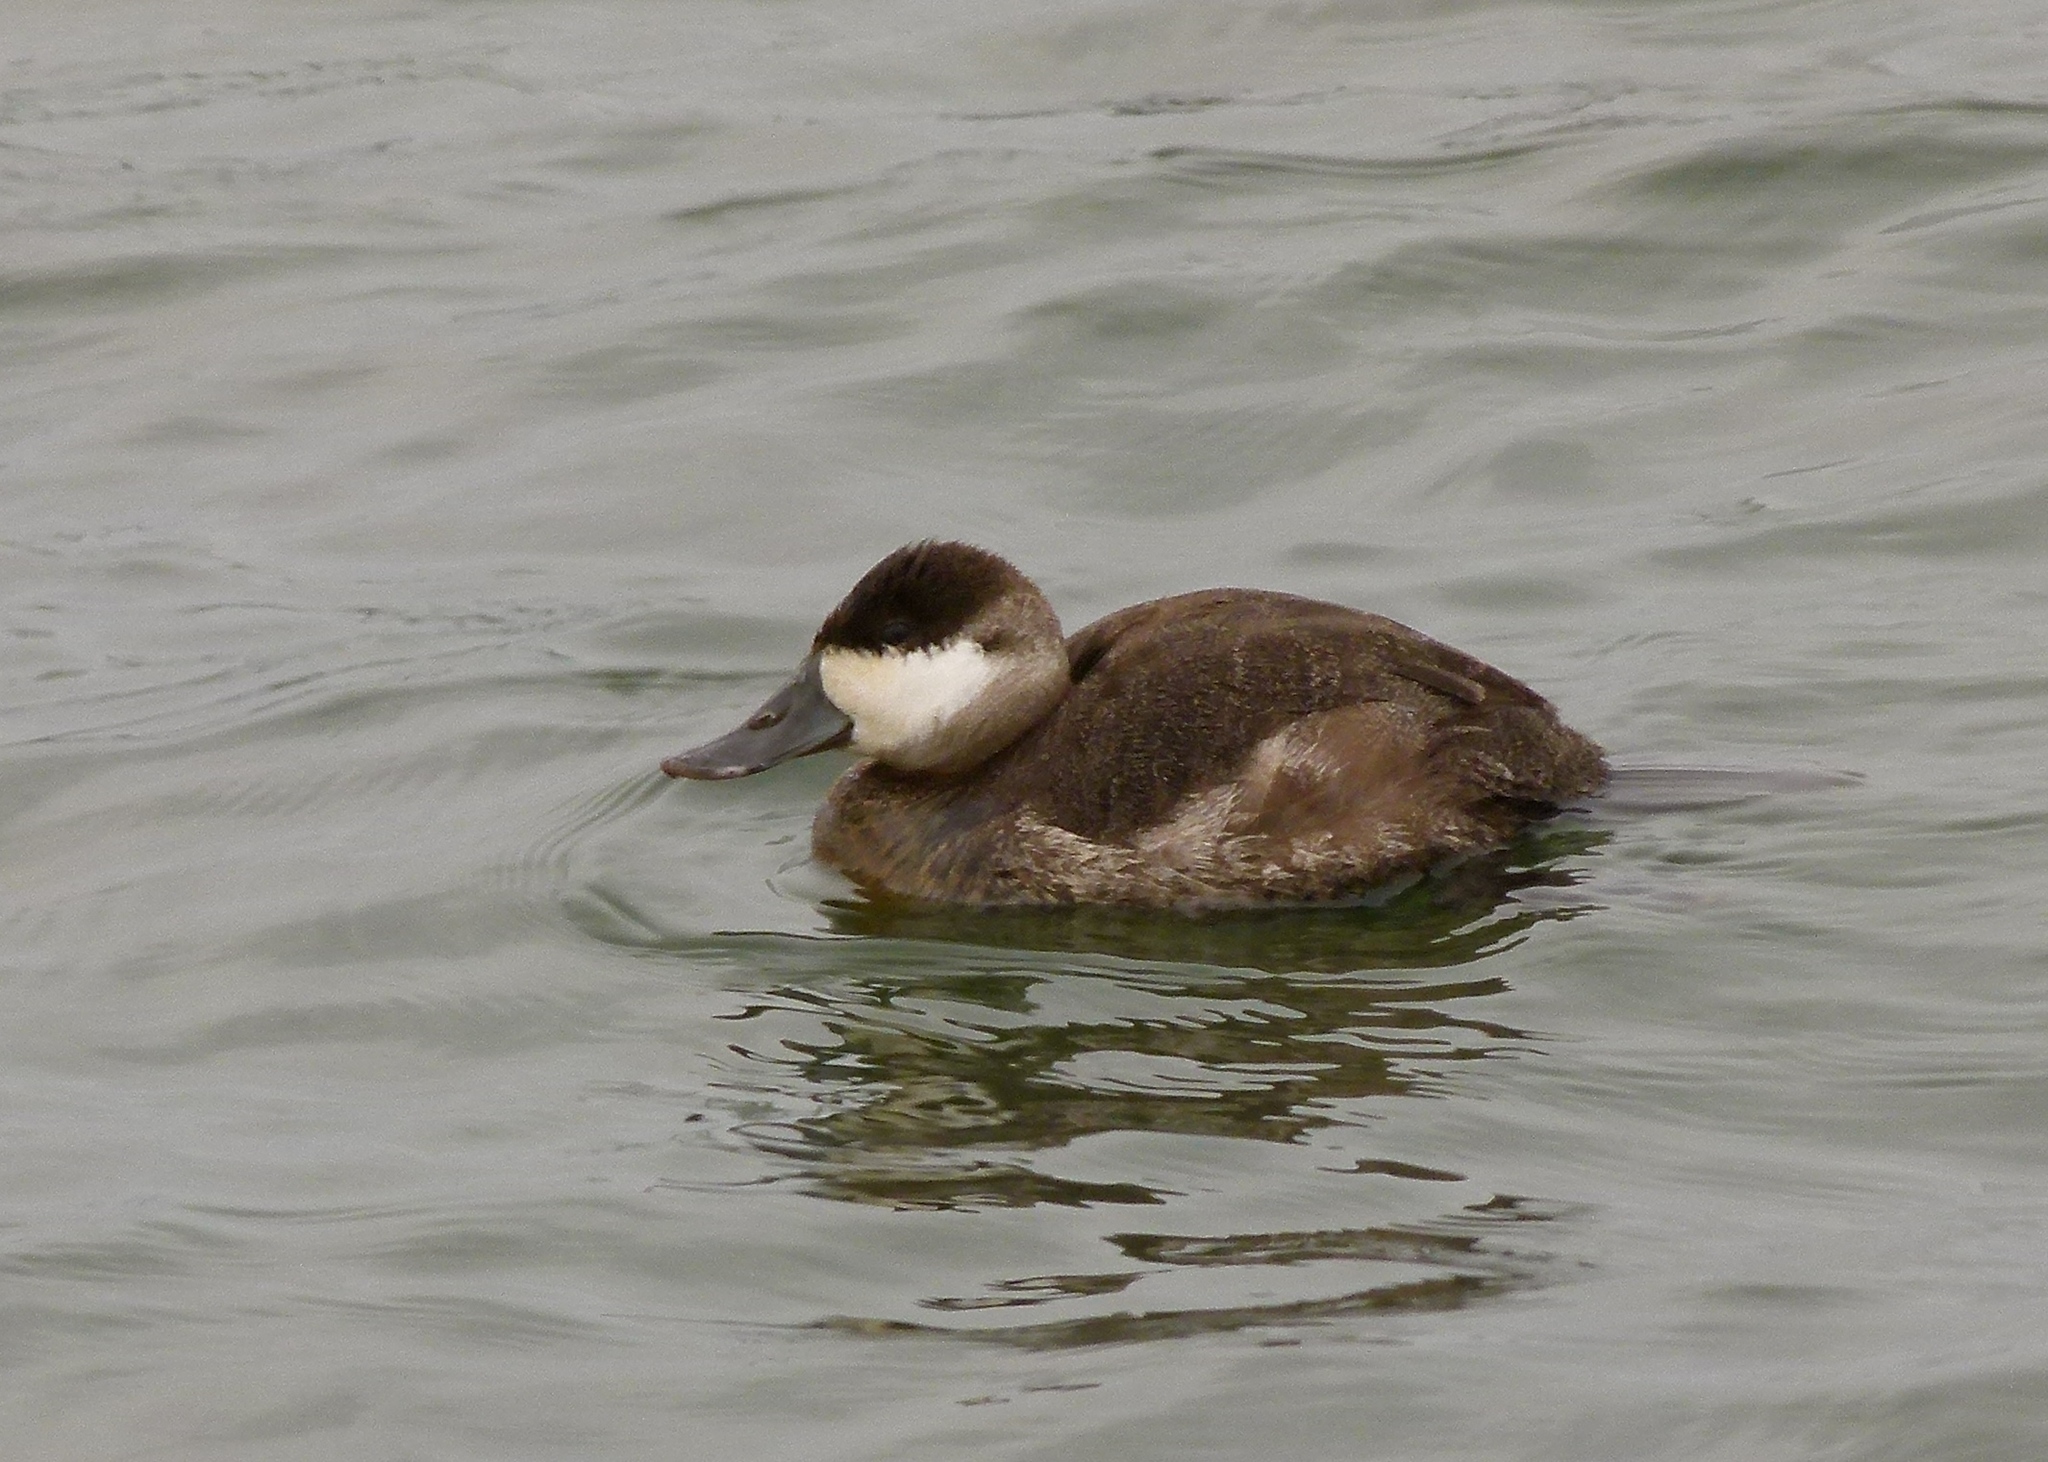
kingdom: Animalia
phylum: Chordata
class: Aves
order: Anseriformes
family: Anatidae
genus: Oxyura
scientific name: Oxyura jamaicensis
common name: Ruddy duck
